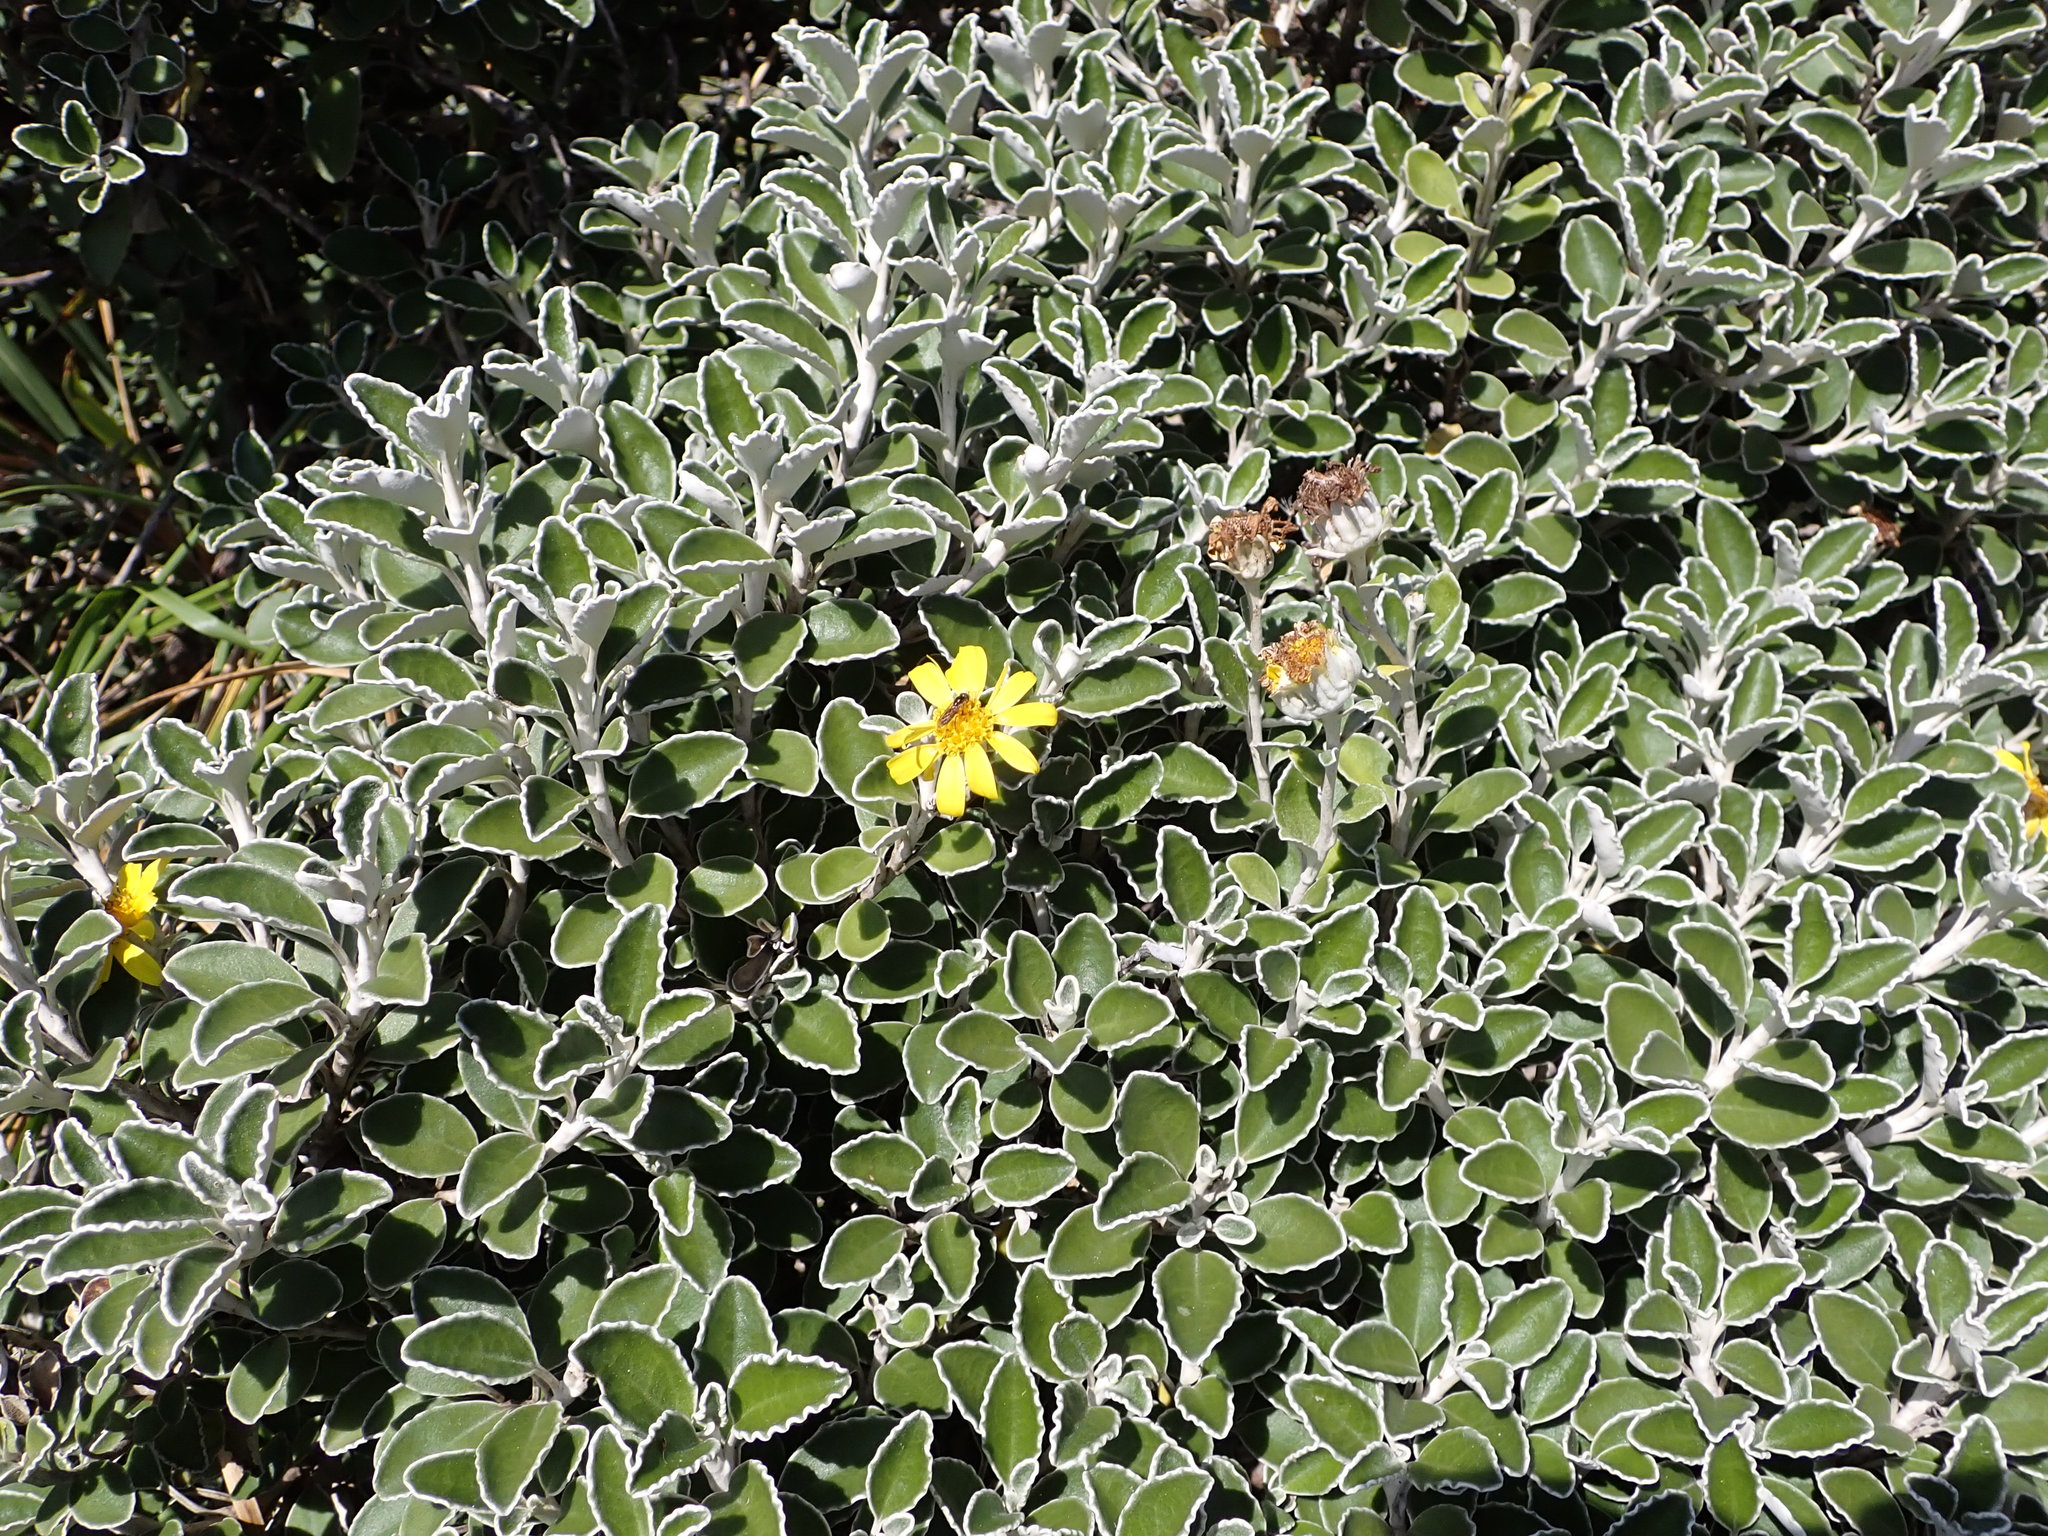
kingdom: Plantae
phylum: Tracheophyta
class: Magnoliopsida
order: Asterales
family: Asteraceae
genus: Brachyglottis
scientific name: Brachyglottis compacta
